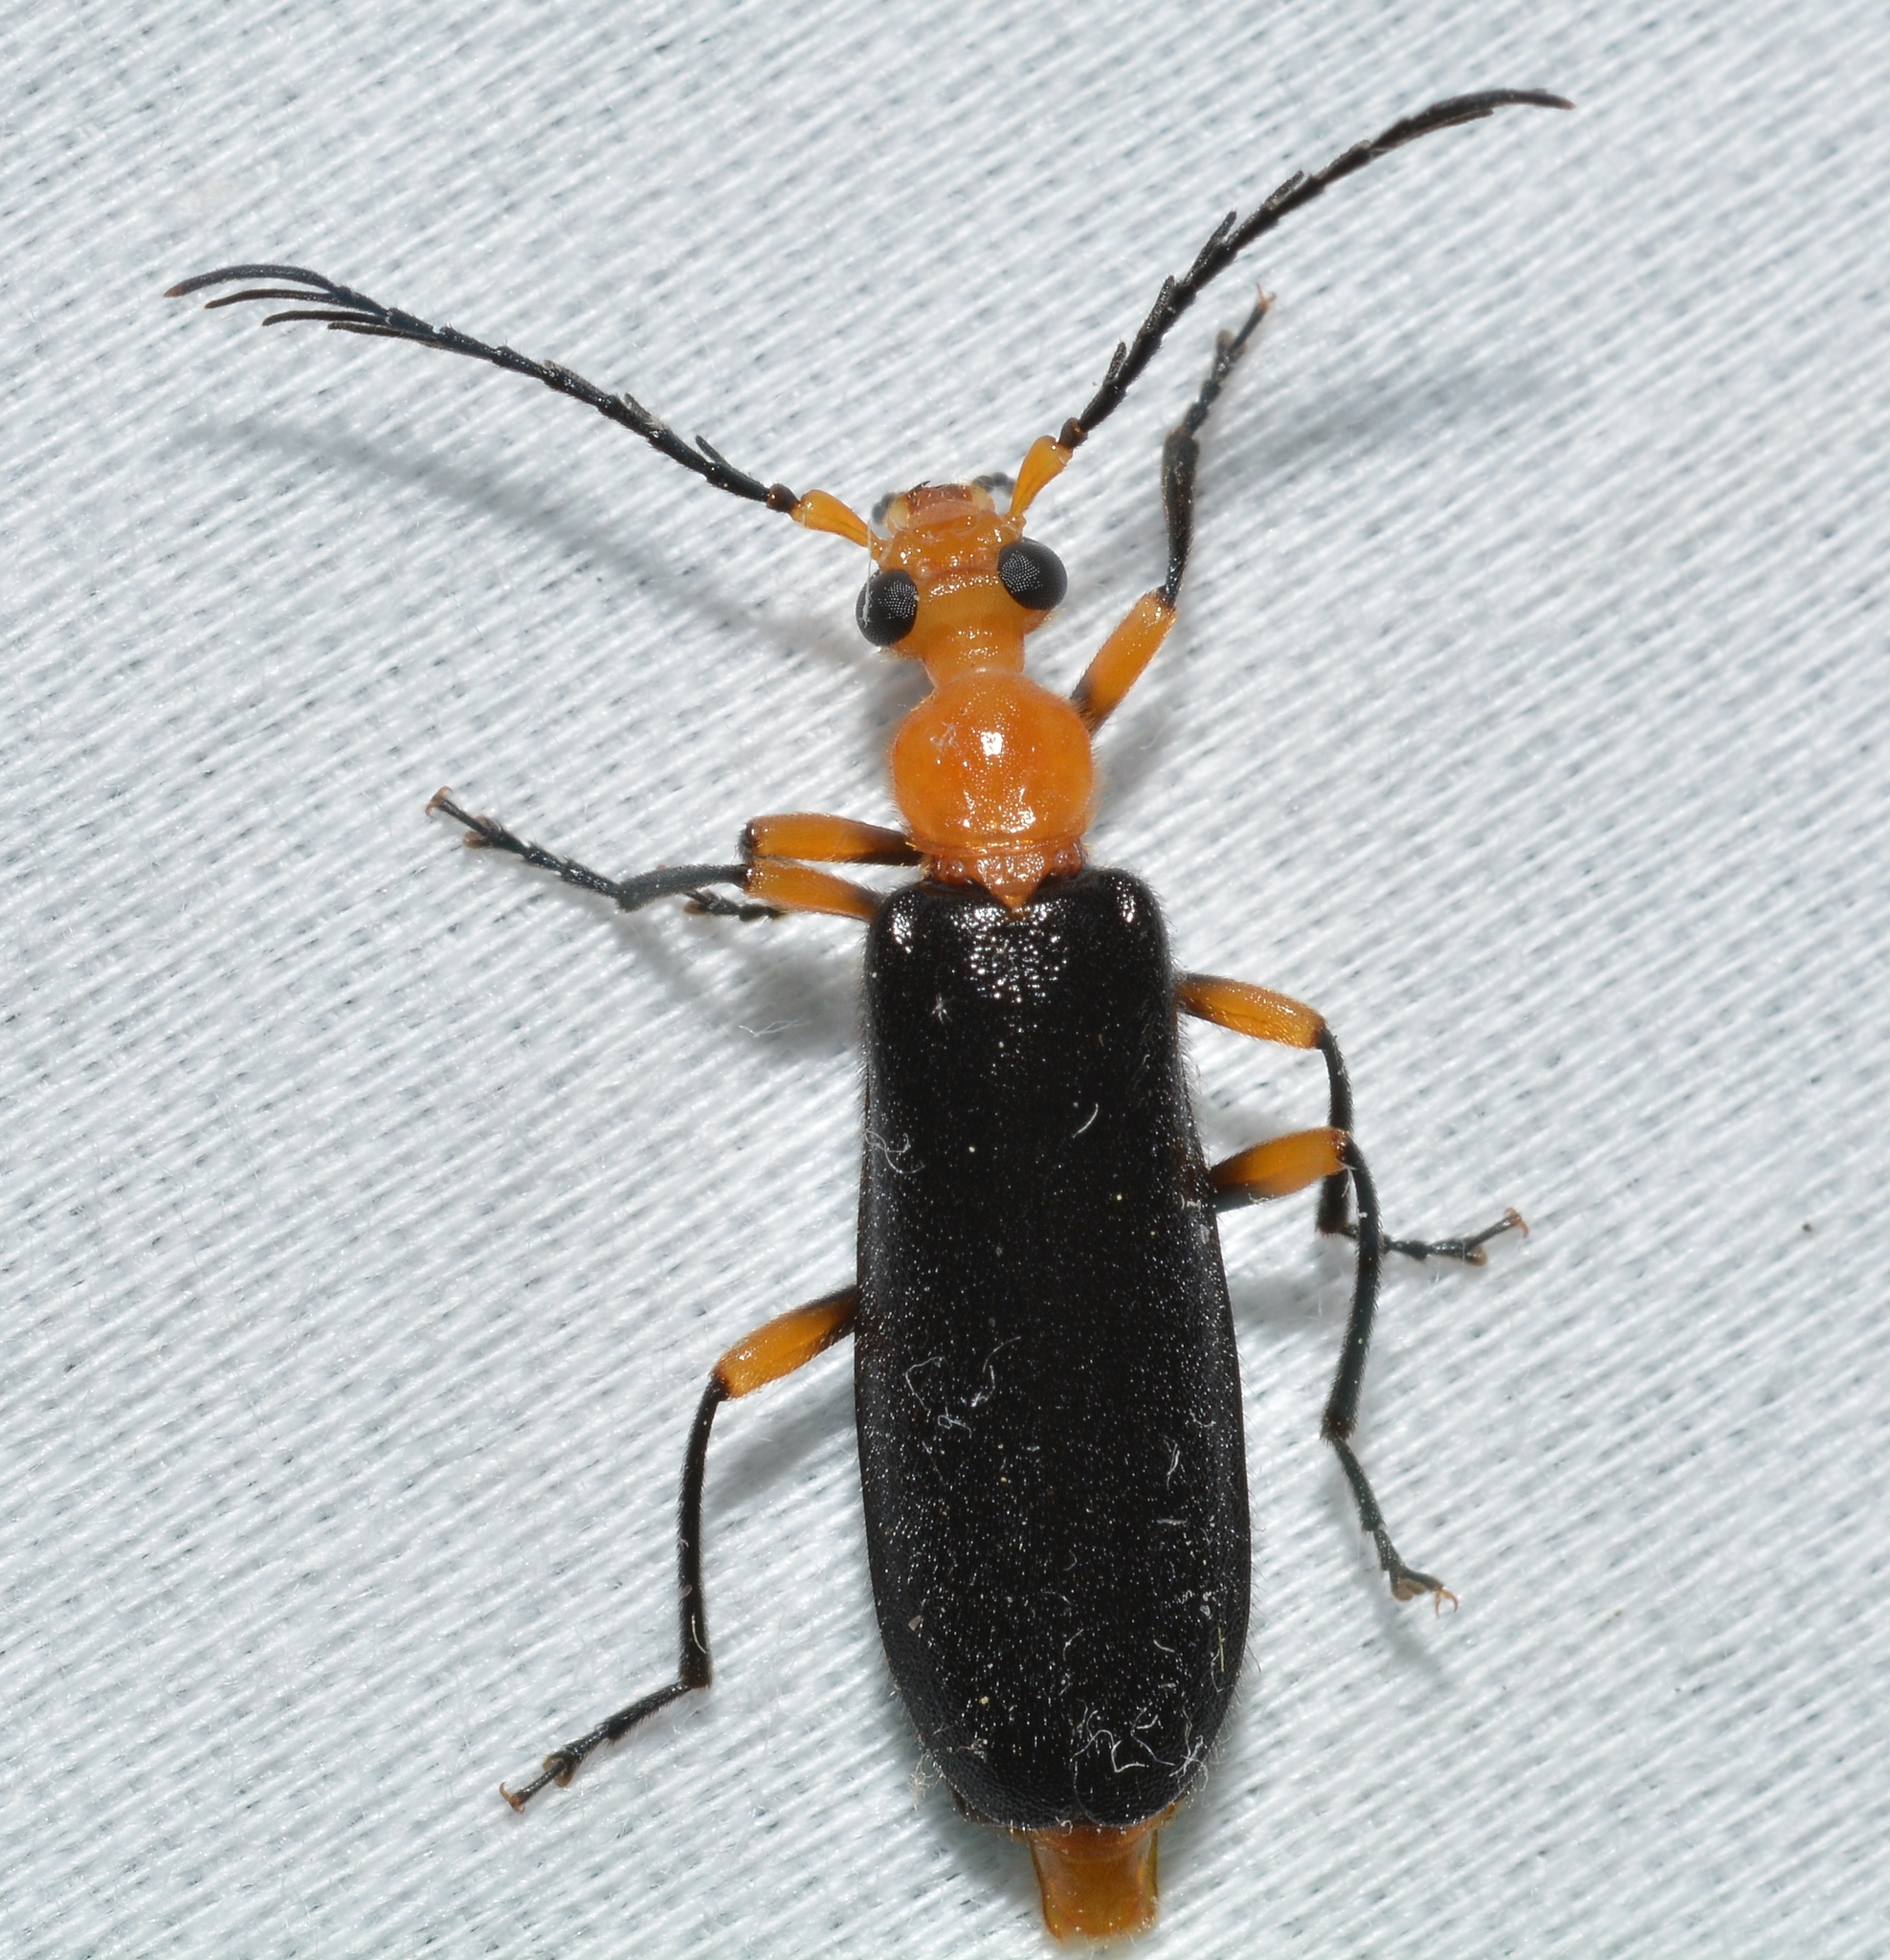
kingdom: Animalia
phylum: Arthropoda
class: Insecta
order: Coleoptera
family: Pyrochroidae
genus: Neopyrochroa
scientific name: Neopyrochroa femoralis
